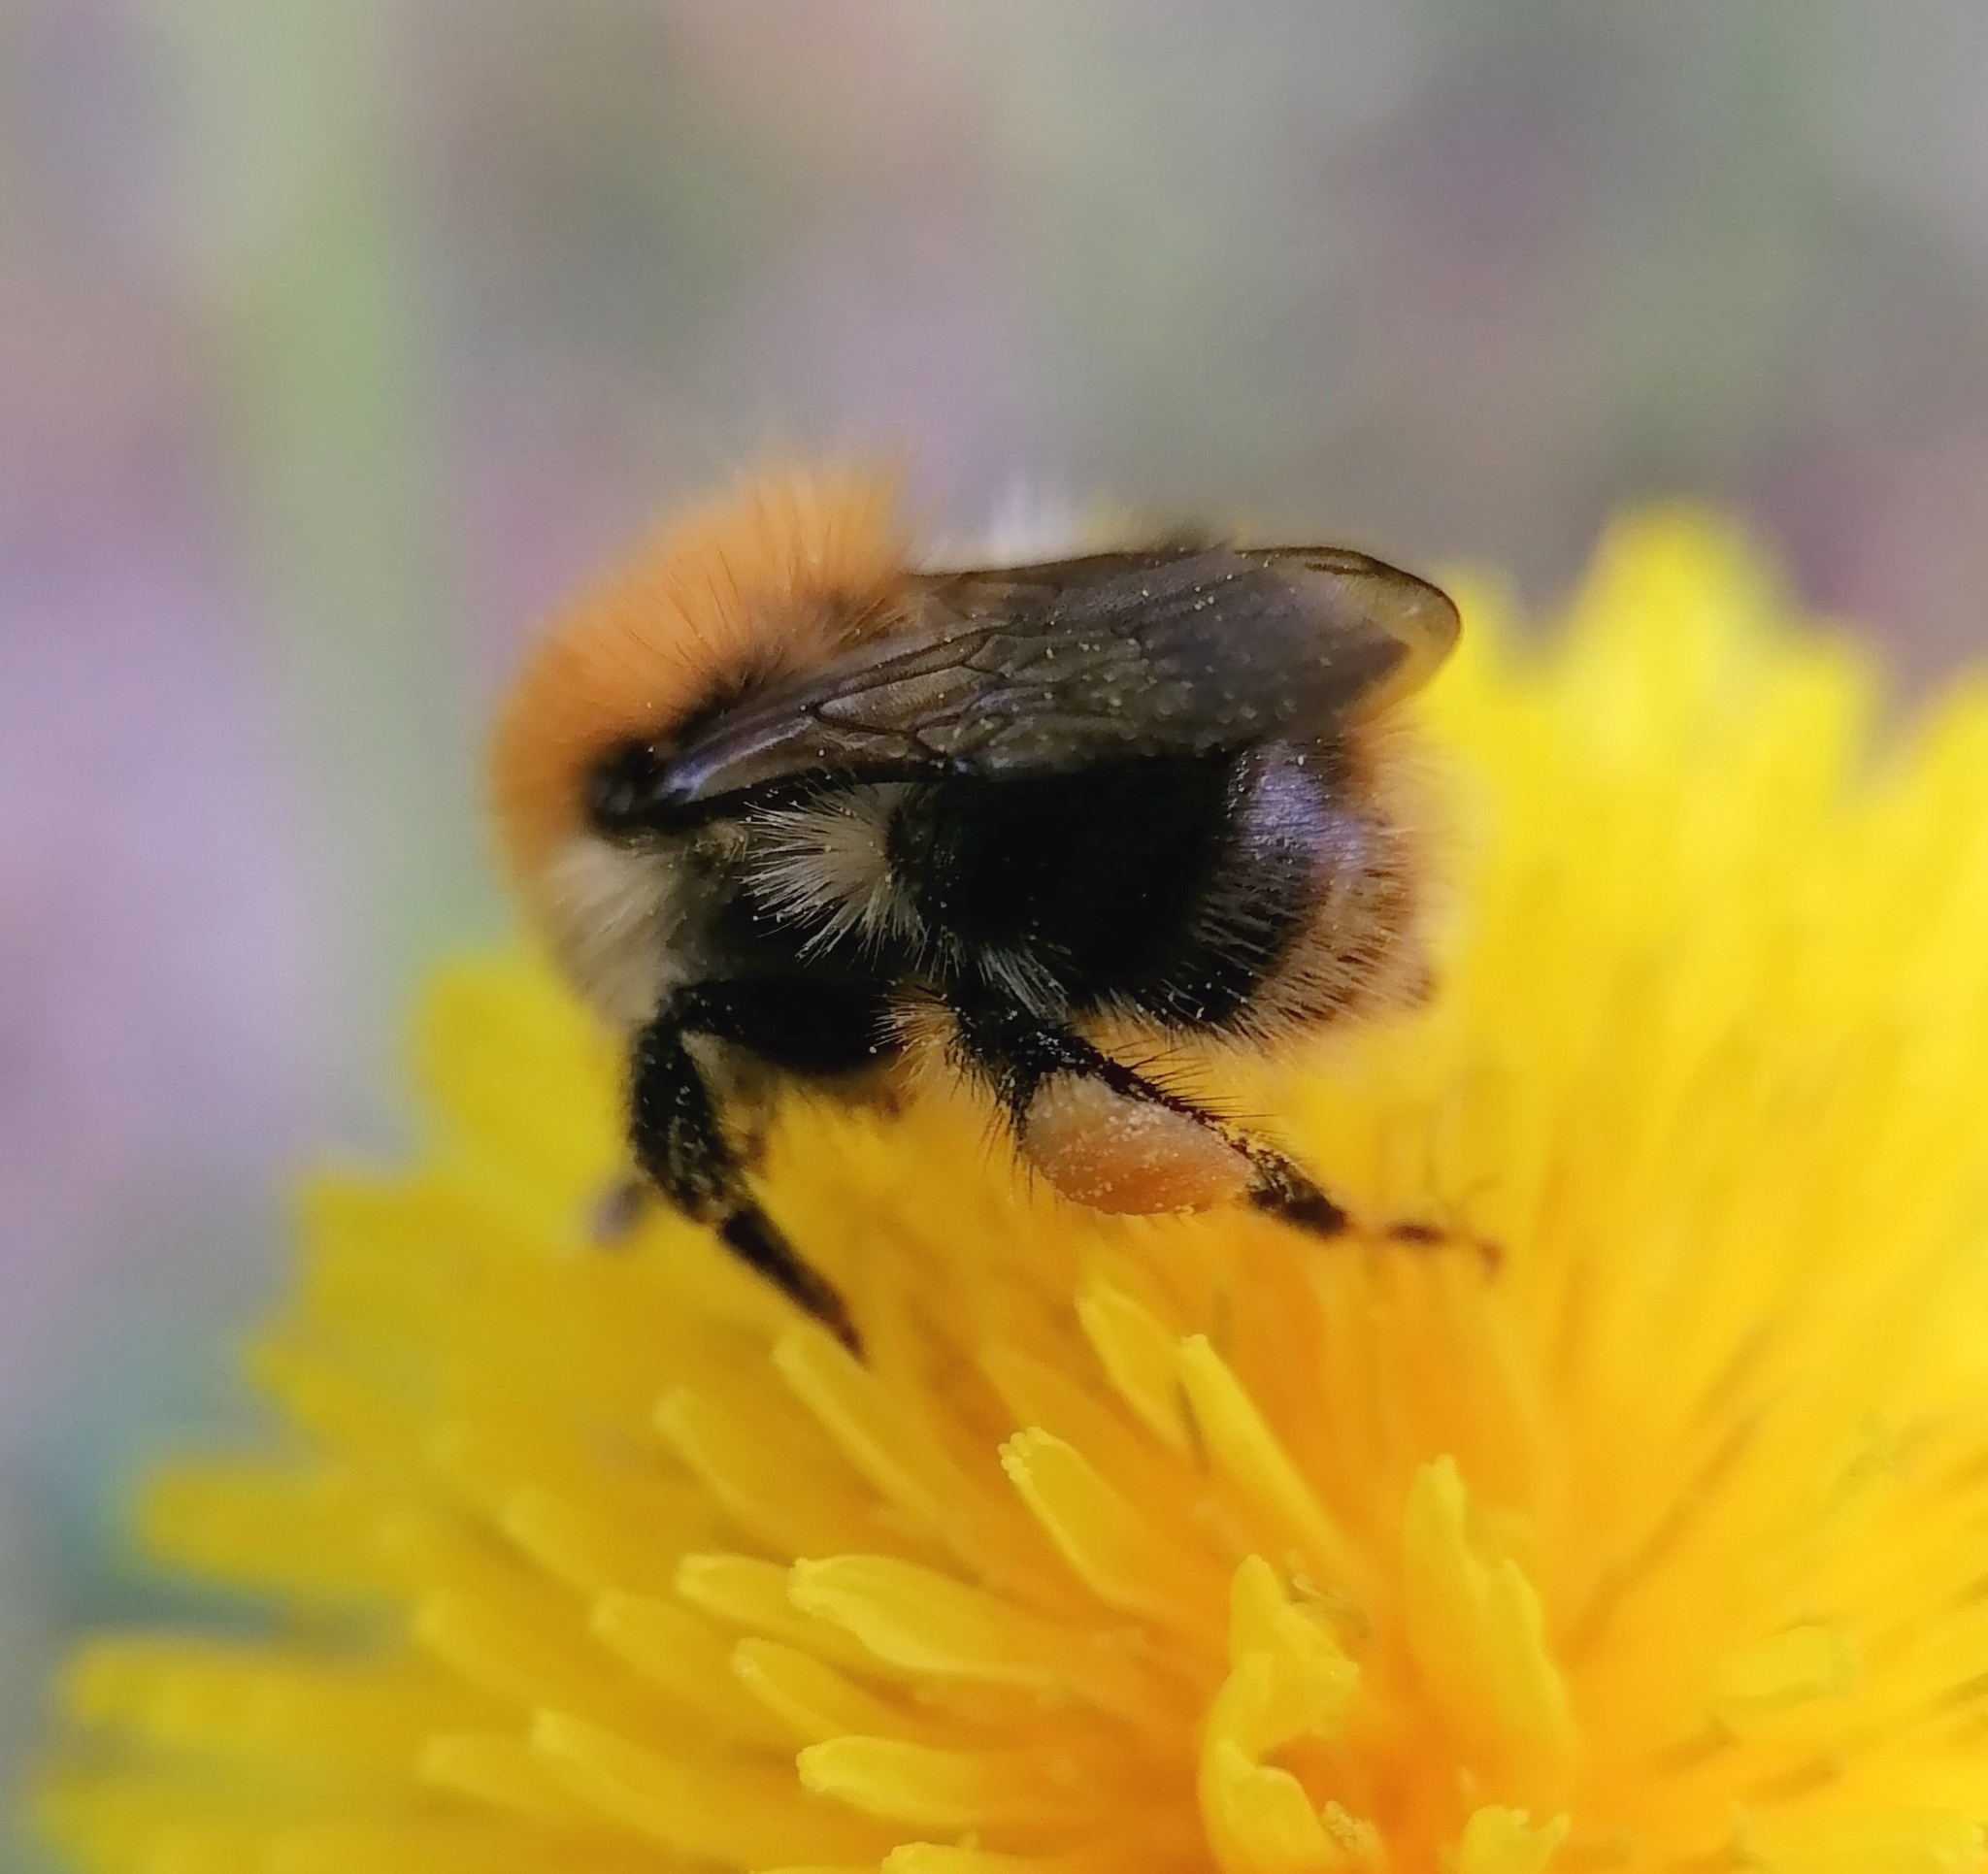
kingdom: Animalia
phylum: Arthropoda
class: Insecta
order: Hymenoptera
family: Apidae
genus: Bombus
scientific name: Bombus pascuorum
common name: Common carder bee
